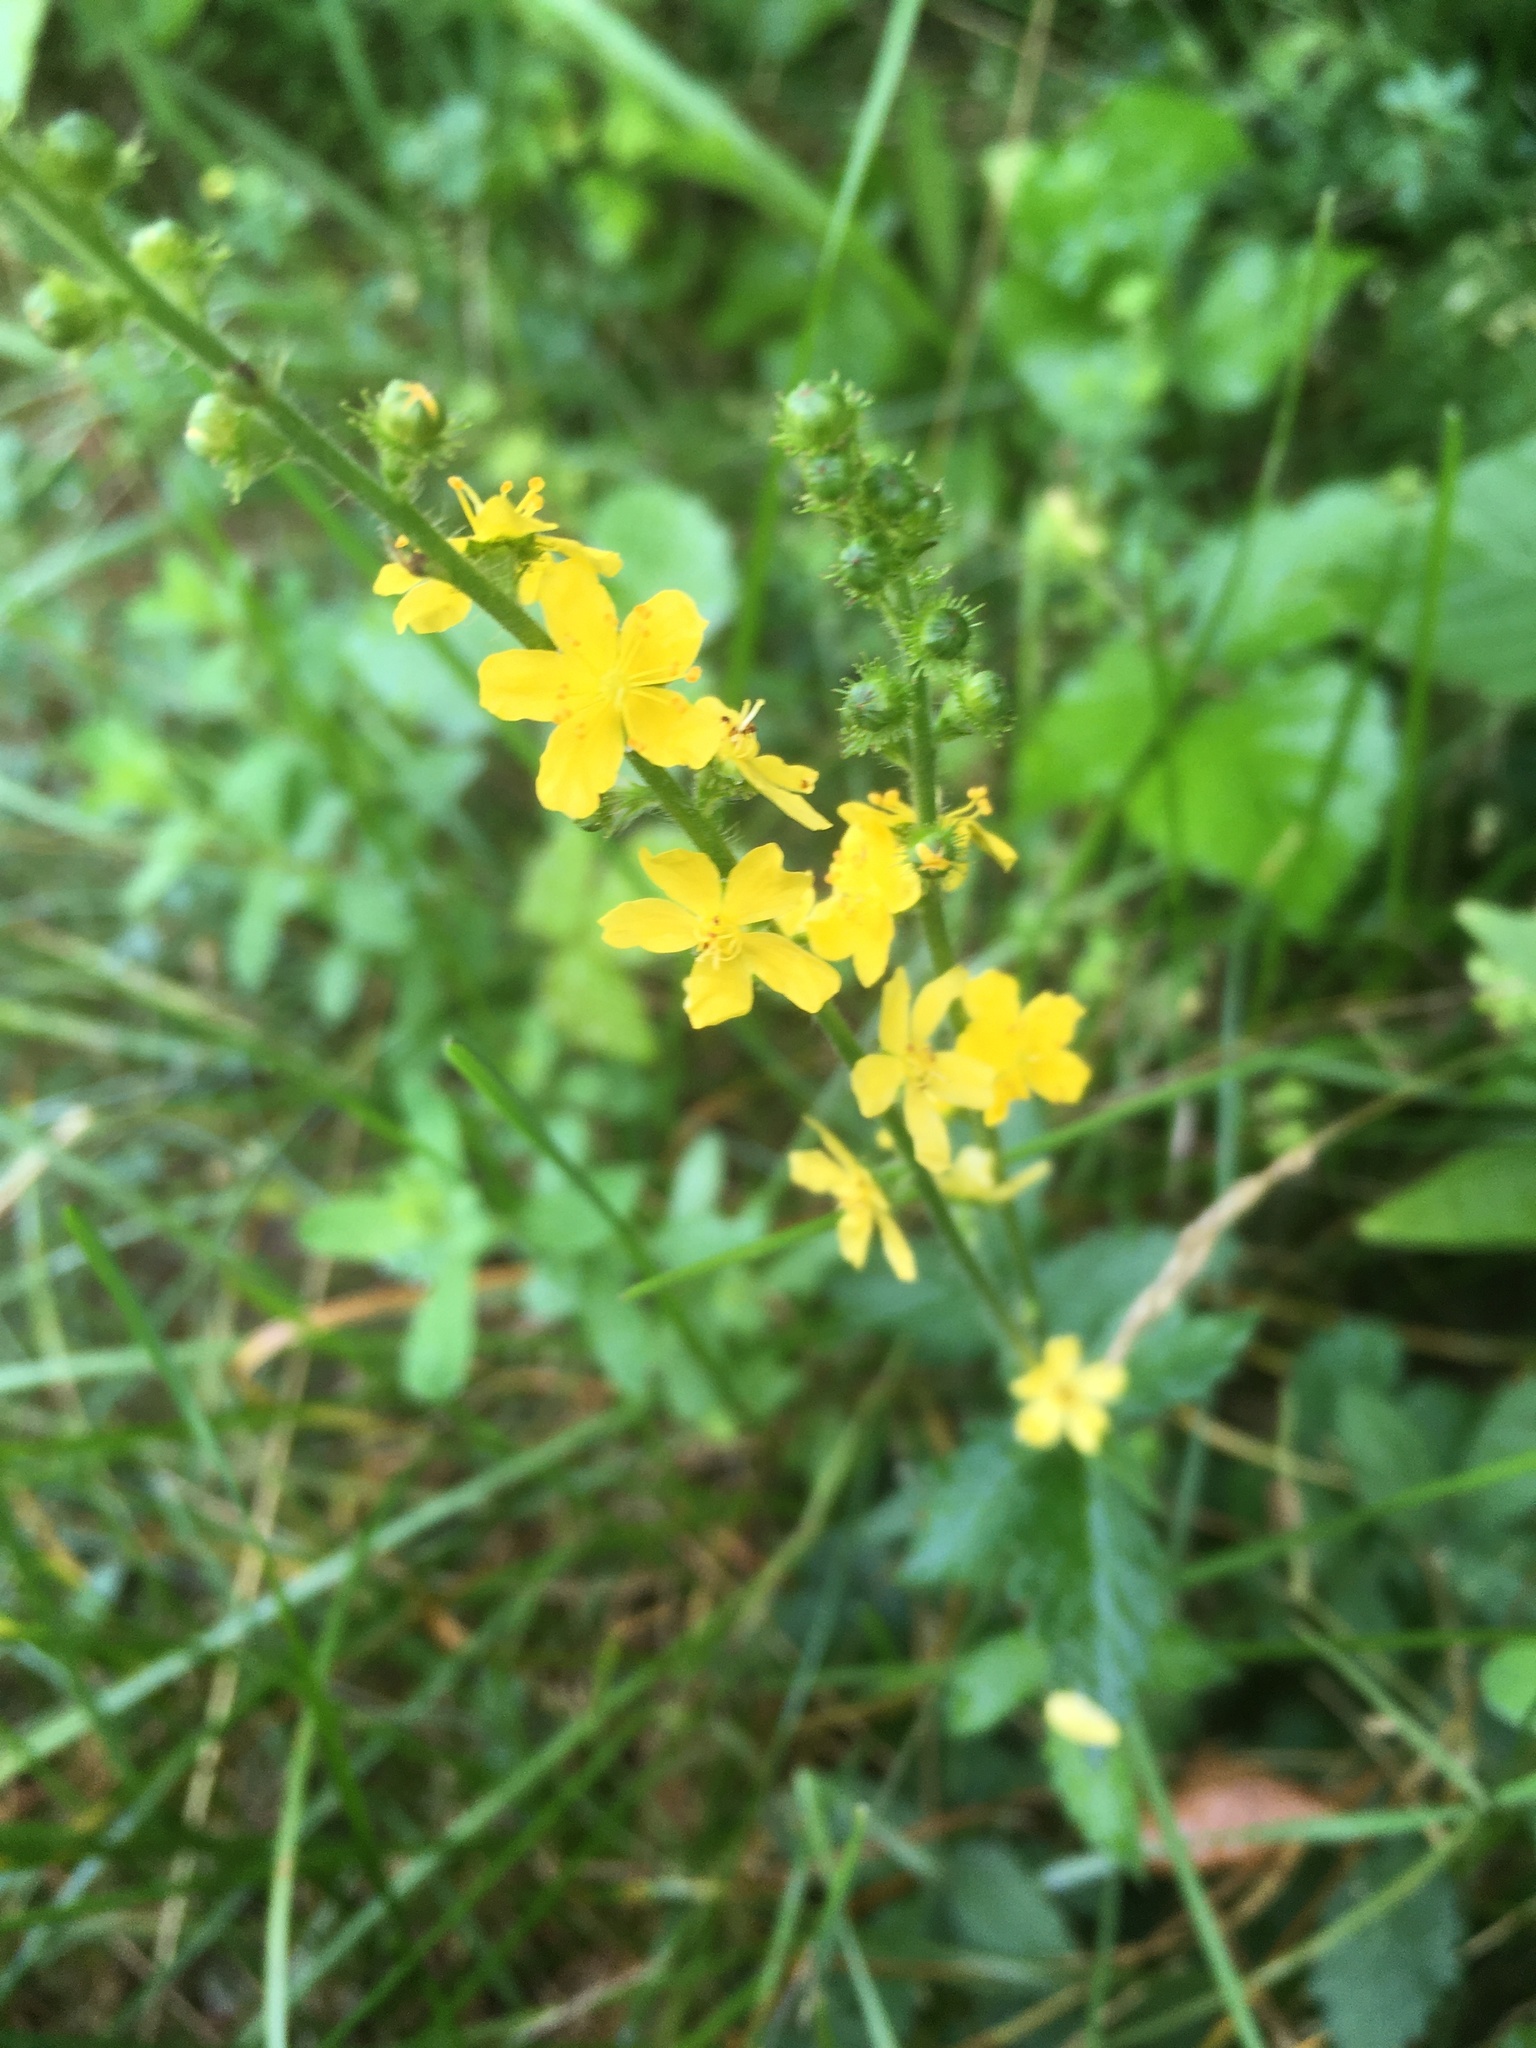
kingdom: Plantae
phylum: Tracheophyta
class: Magnoliopsida
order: Rosales
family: Rosaceae
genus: Agrimonia
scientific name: Agrimonia eupatoria
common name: Agrimony
